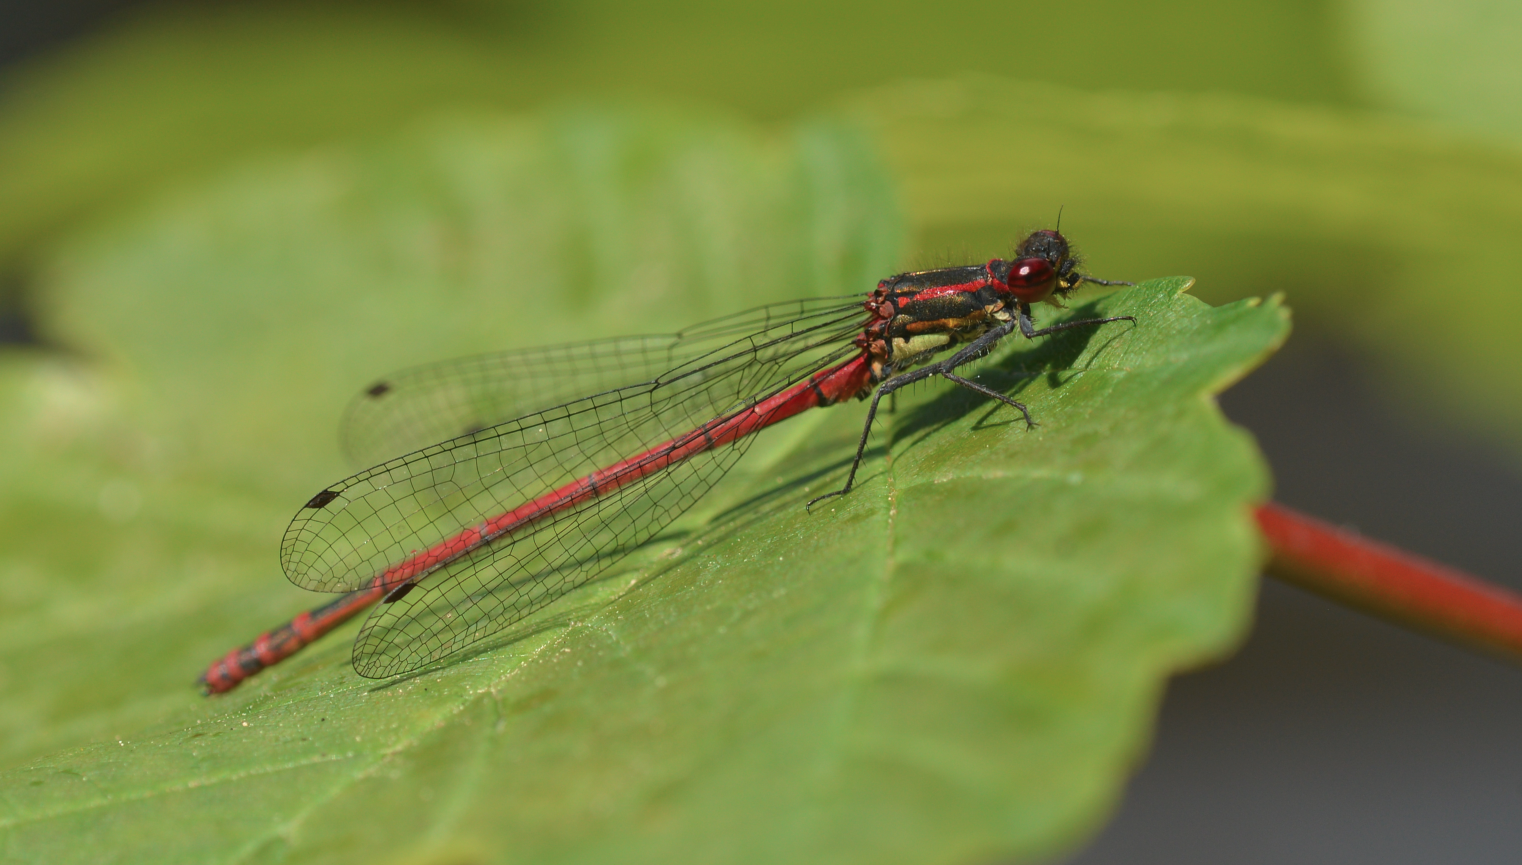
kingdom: Animalia
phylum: Arthropoda
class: Insecta
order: Odonata
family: Coenagrionidae
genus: Pyrrhosoma
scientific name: Pyrrhosoma nymphula
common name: Large red damsel
